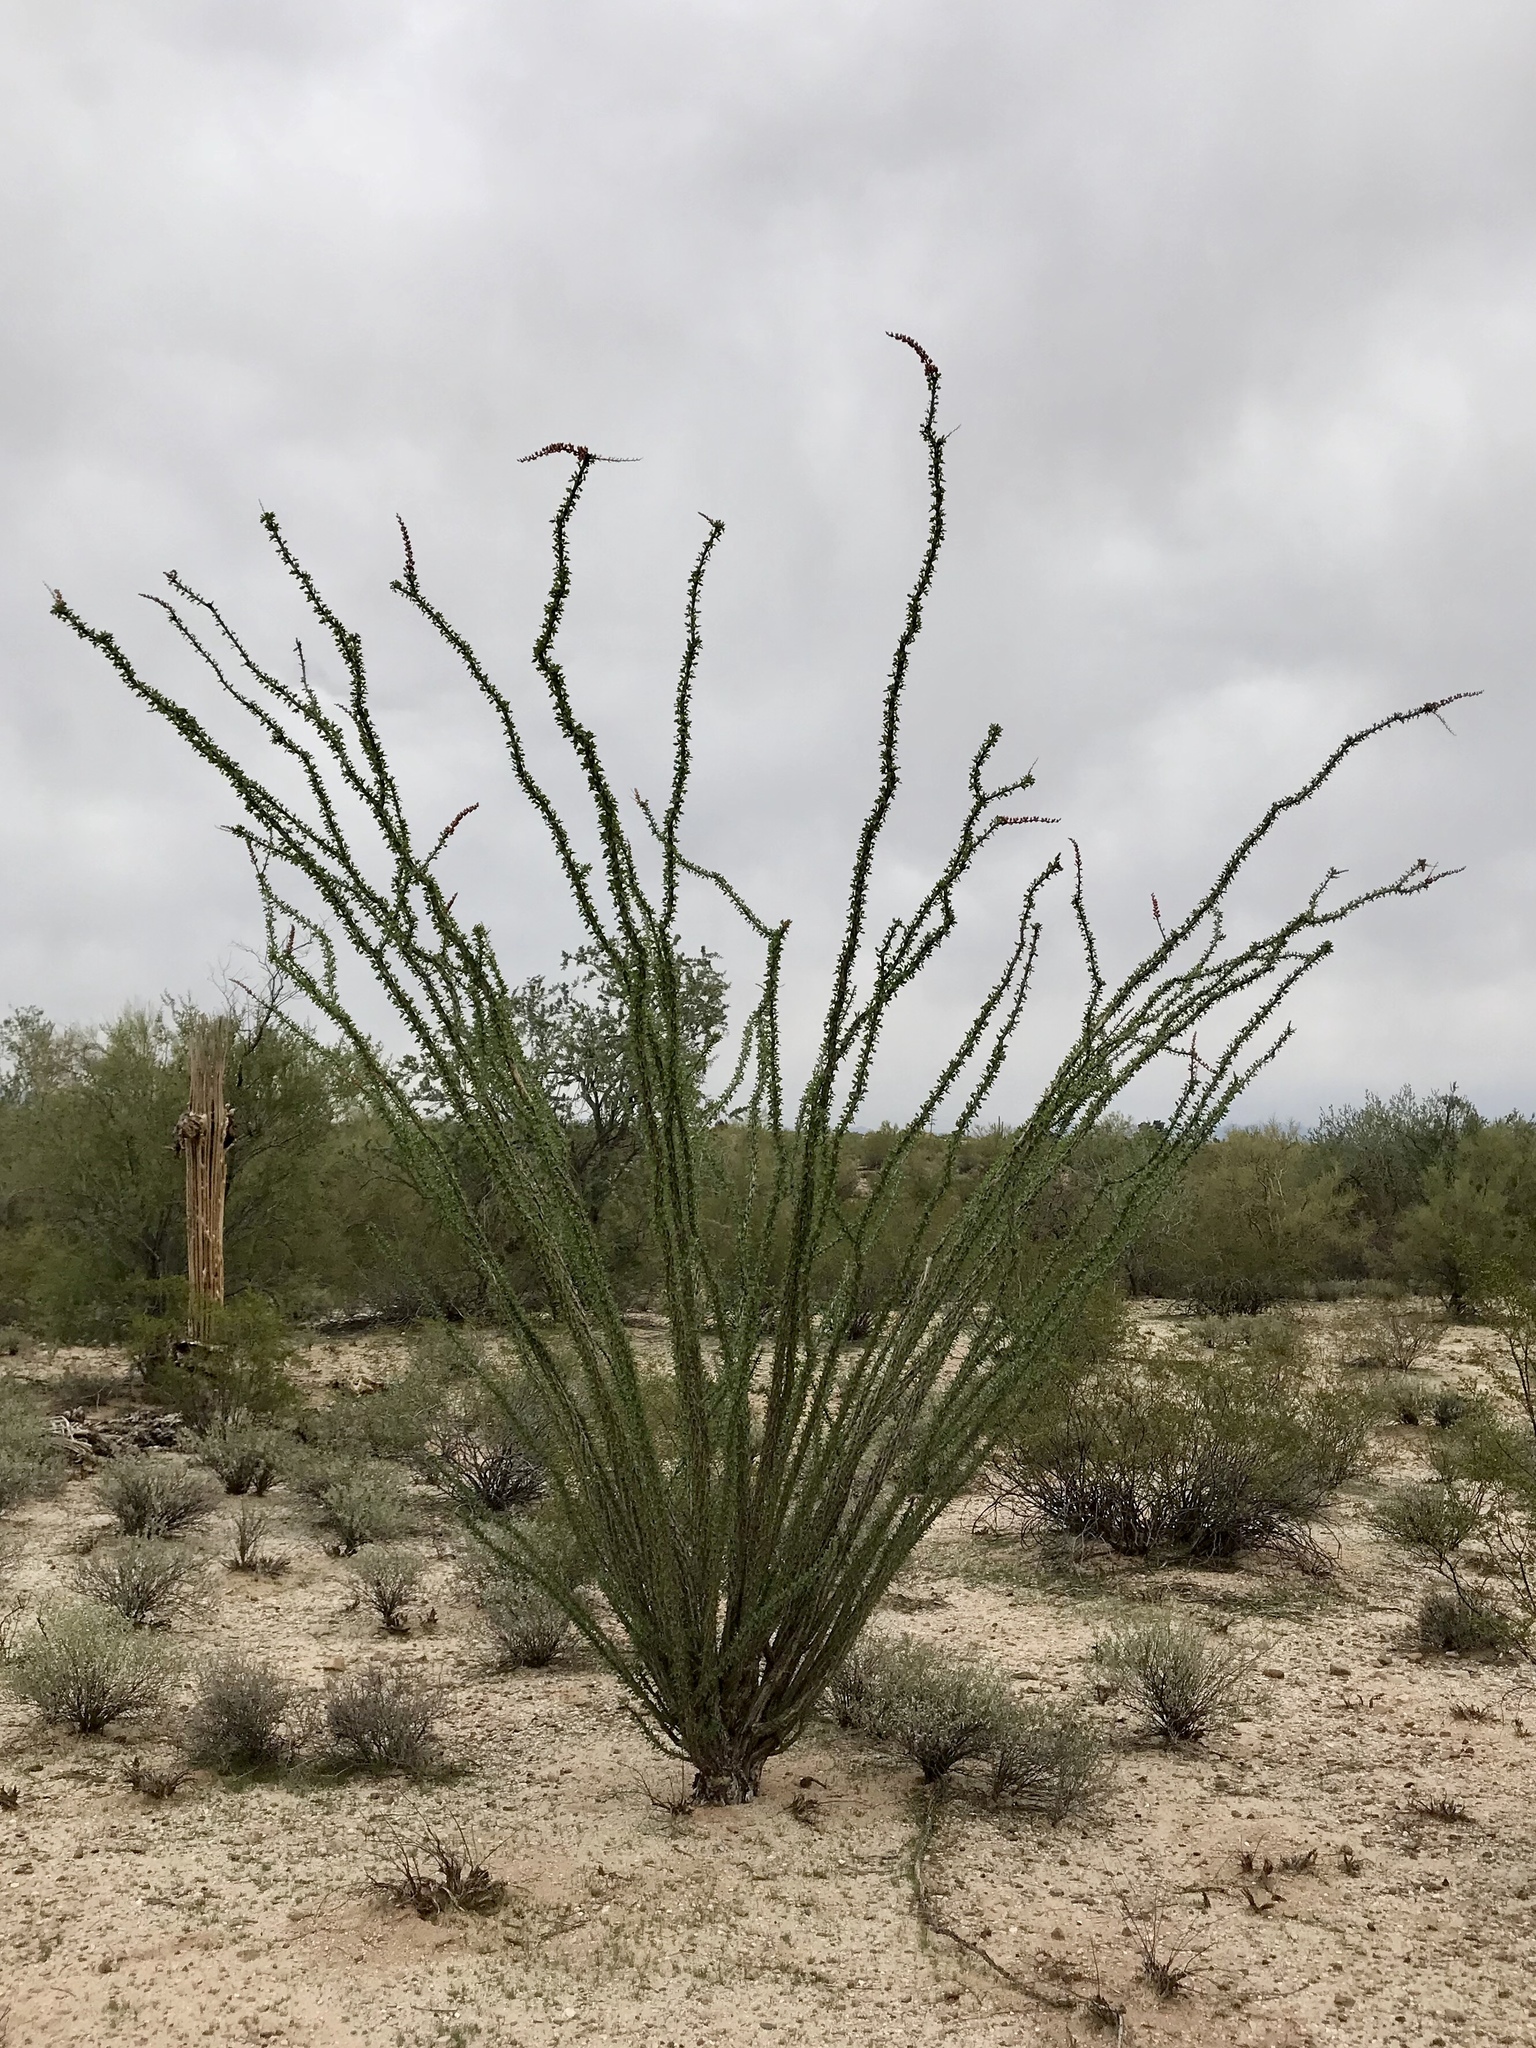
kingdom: Plantae
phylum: Tracheophyta
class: Magnoliopsida
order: Ericales
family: Fouquieriaceae
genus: Fouquieria
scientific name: Fouquieria splendens
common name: Vine-cactus
